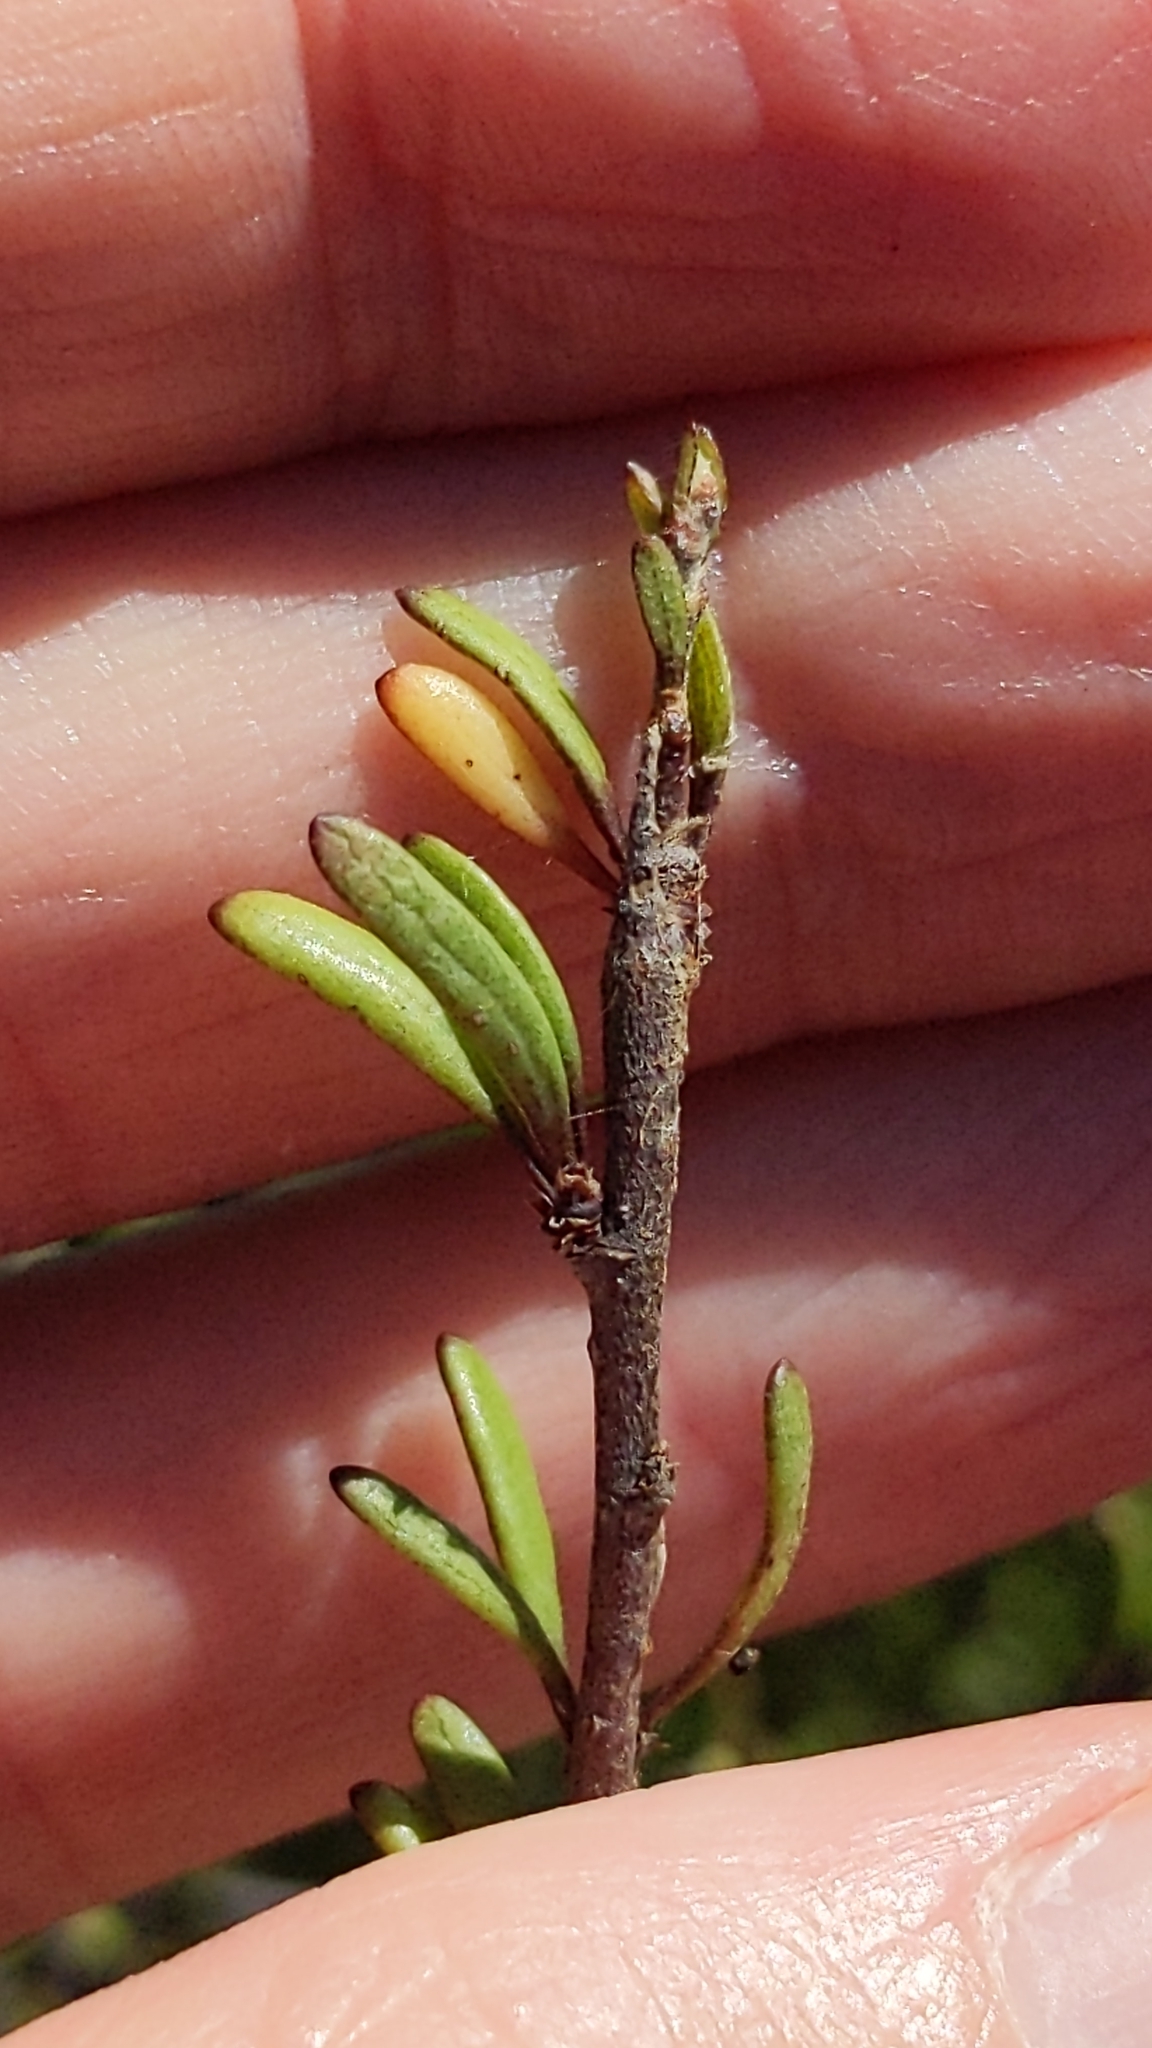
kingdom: Plantae
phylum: Tracheophyta
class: Magnoliopsida
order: Malvales
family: Malvaceae
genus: Plagianthus
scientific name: Plagianthus divaricatus
